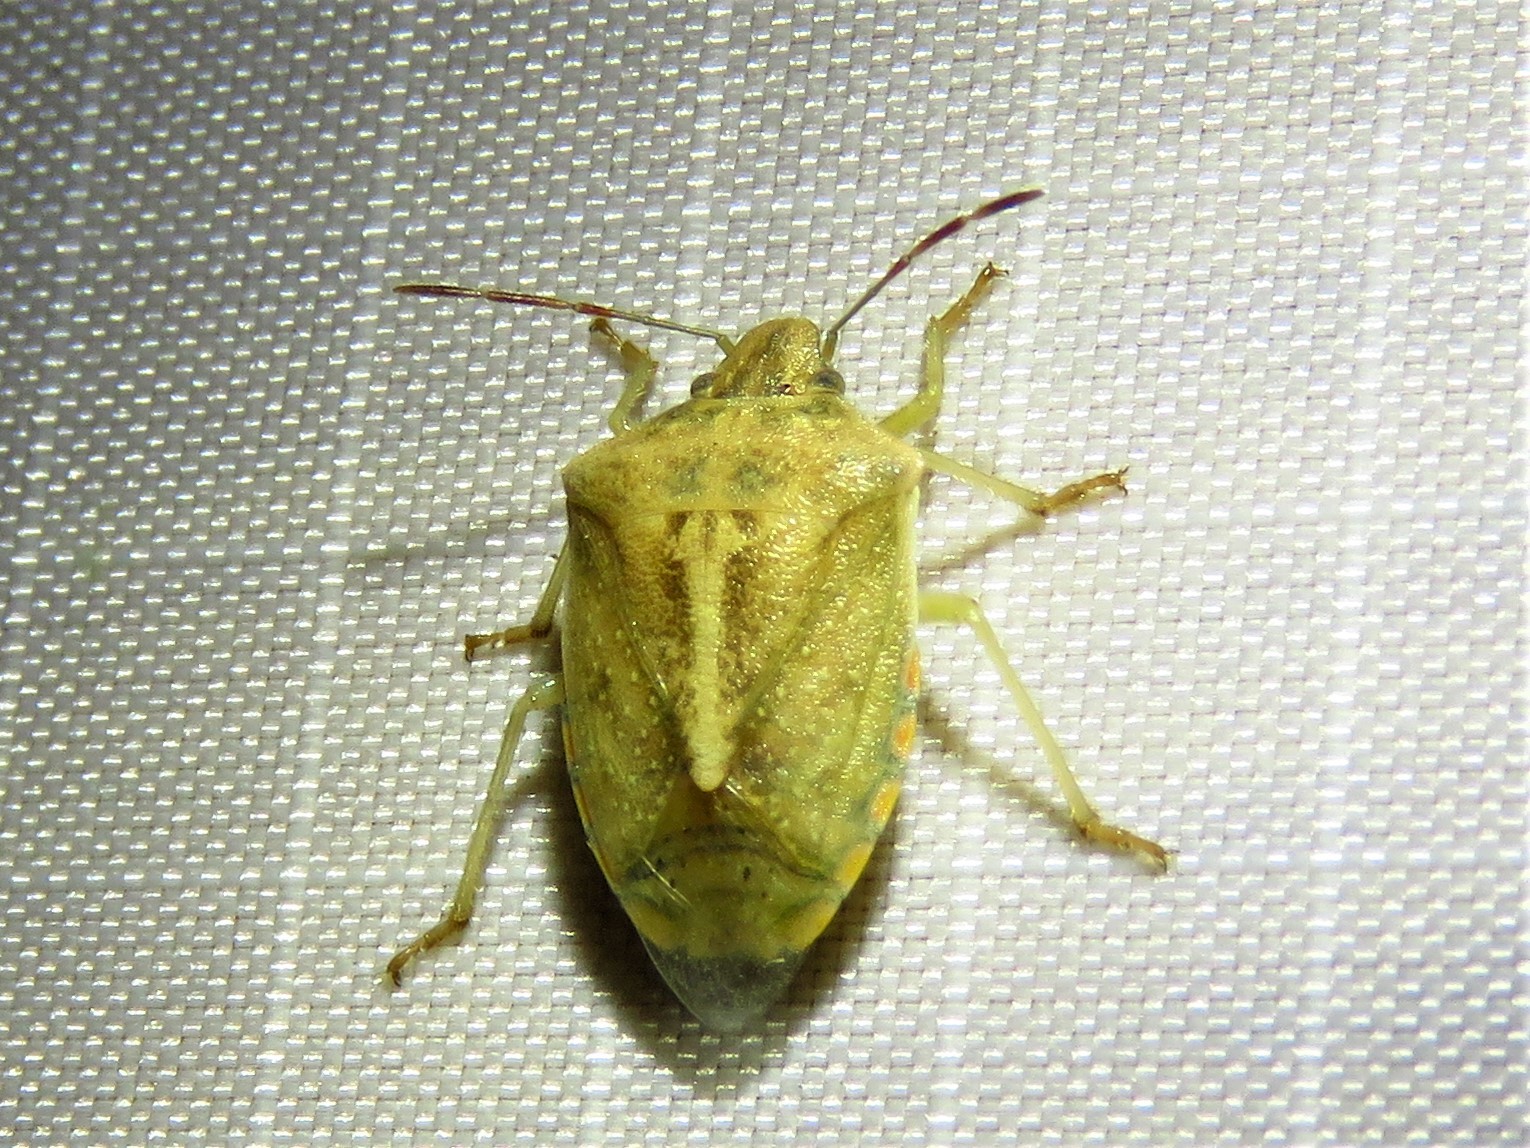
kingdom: Animalia
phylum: Arthropoda
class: Insecta
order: Hemiptera
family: Pentatomidae
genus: Thyanta
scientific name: Thyanta accerra
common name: Stink bug
